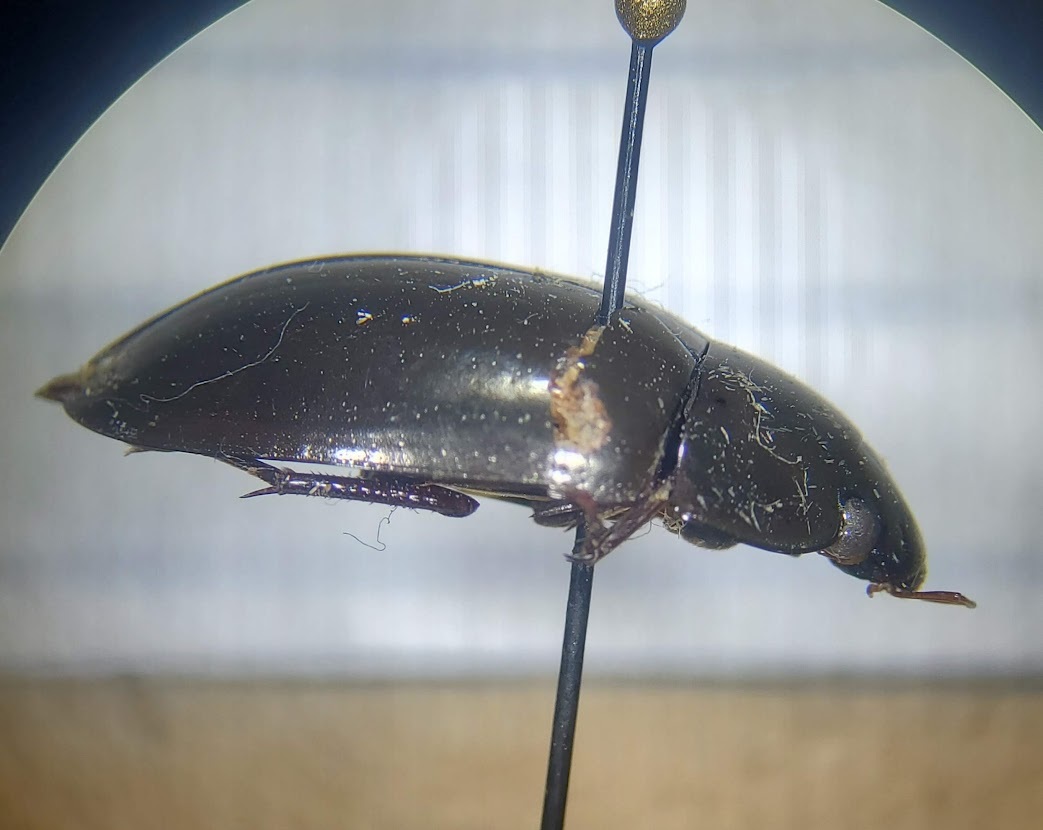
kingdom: Animalia
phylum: Arthropoda
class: Insecta
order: Coleoptera
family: Hydrophilidae
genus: Hydrochara
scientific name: Hydrochara
